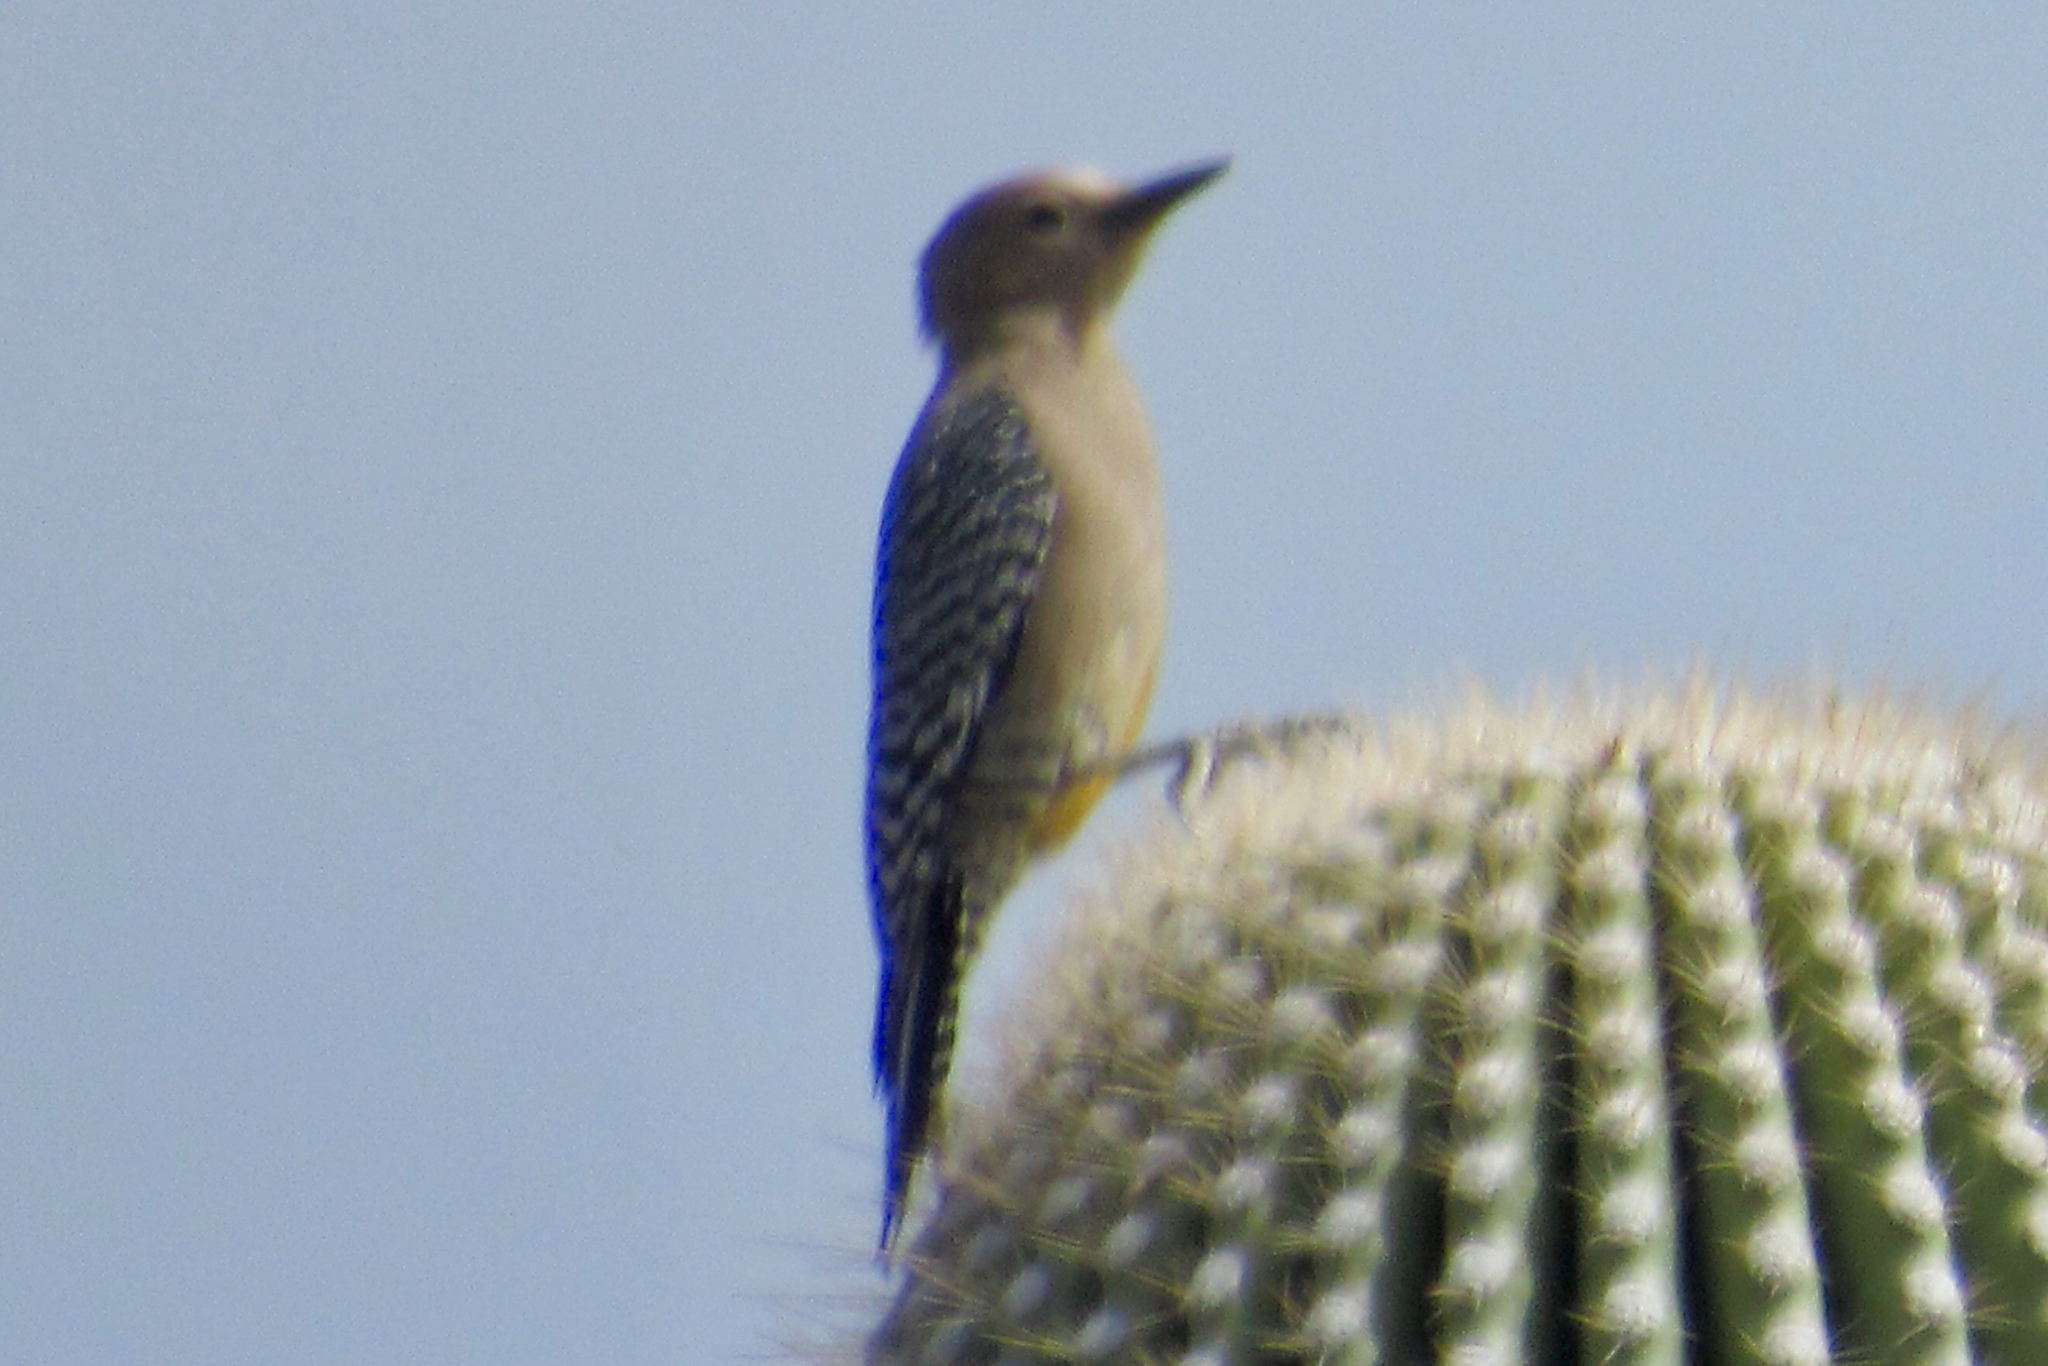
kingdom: Animalia
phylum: Chordata
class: Aves
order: Piciformes
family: Picidae
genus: Melanerpes
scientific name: Melanerpes uropygialis
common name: Gila woodpecker
